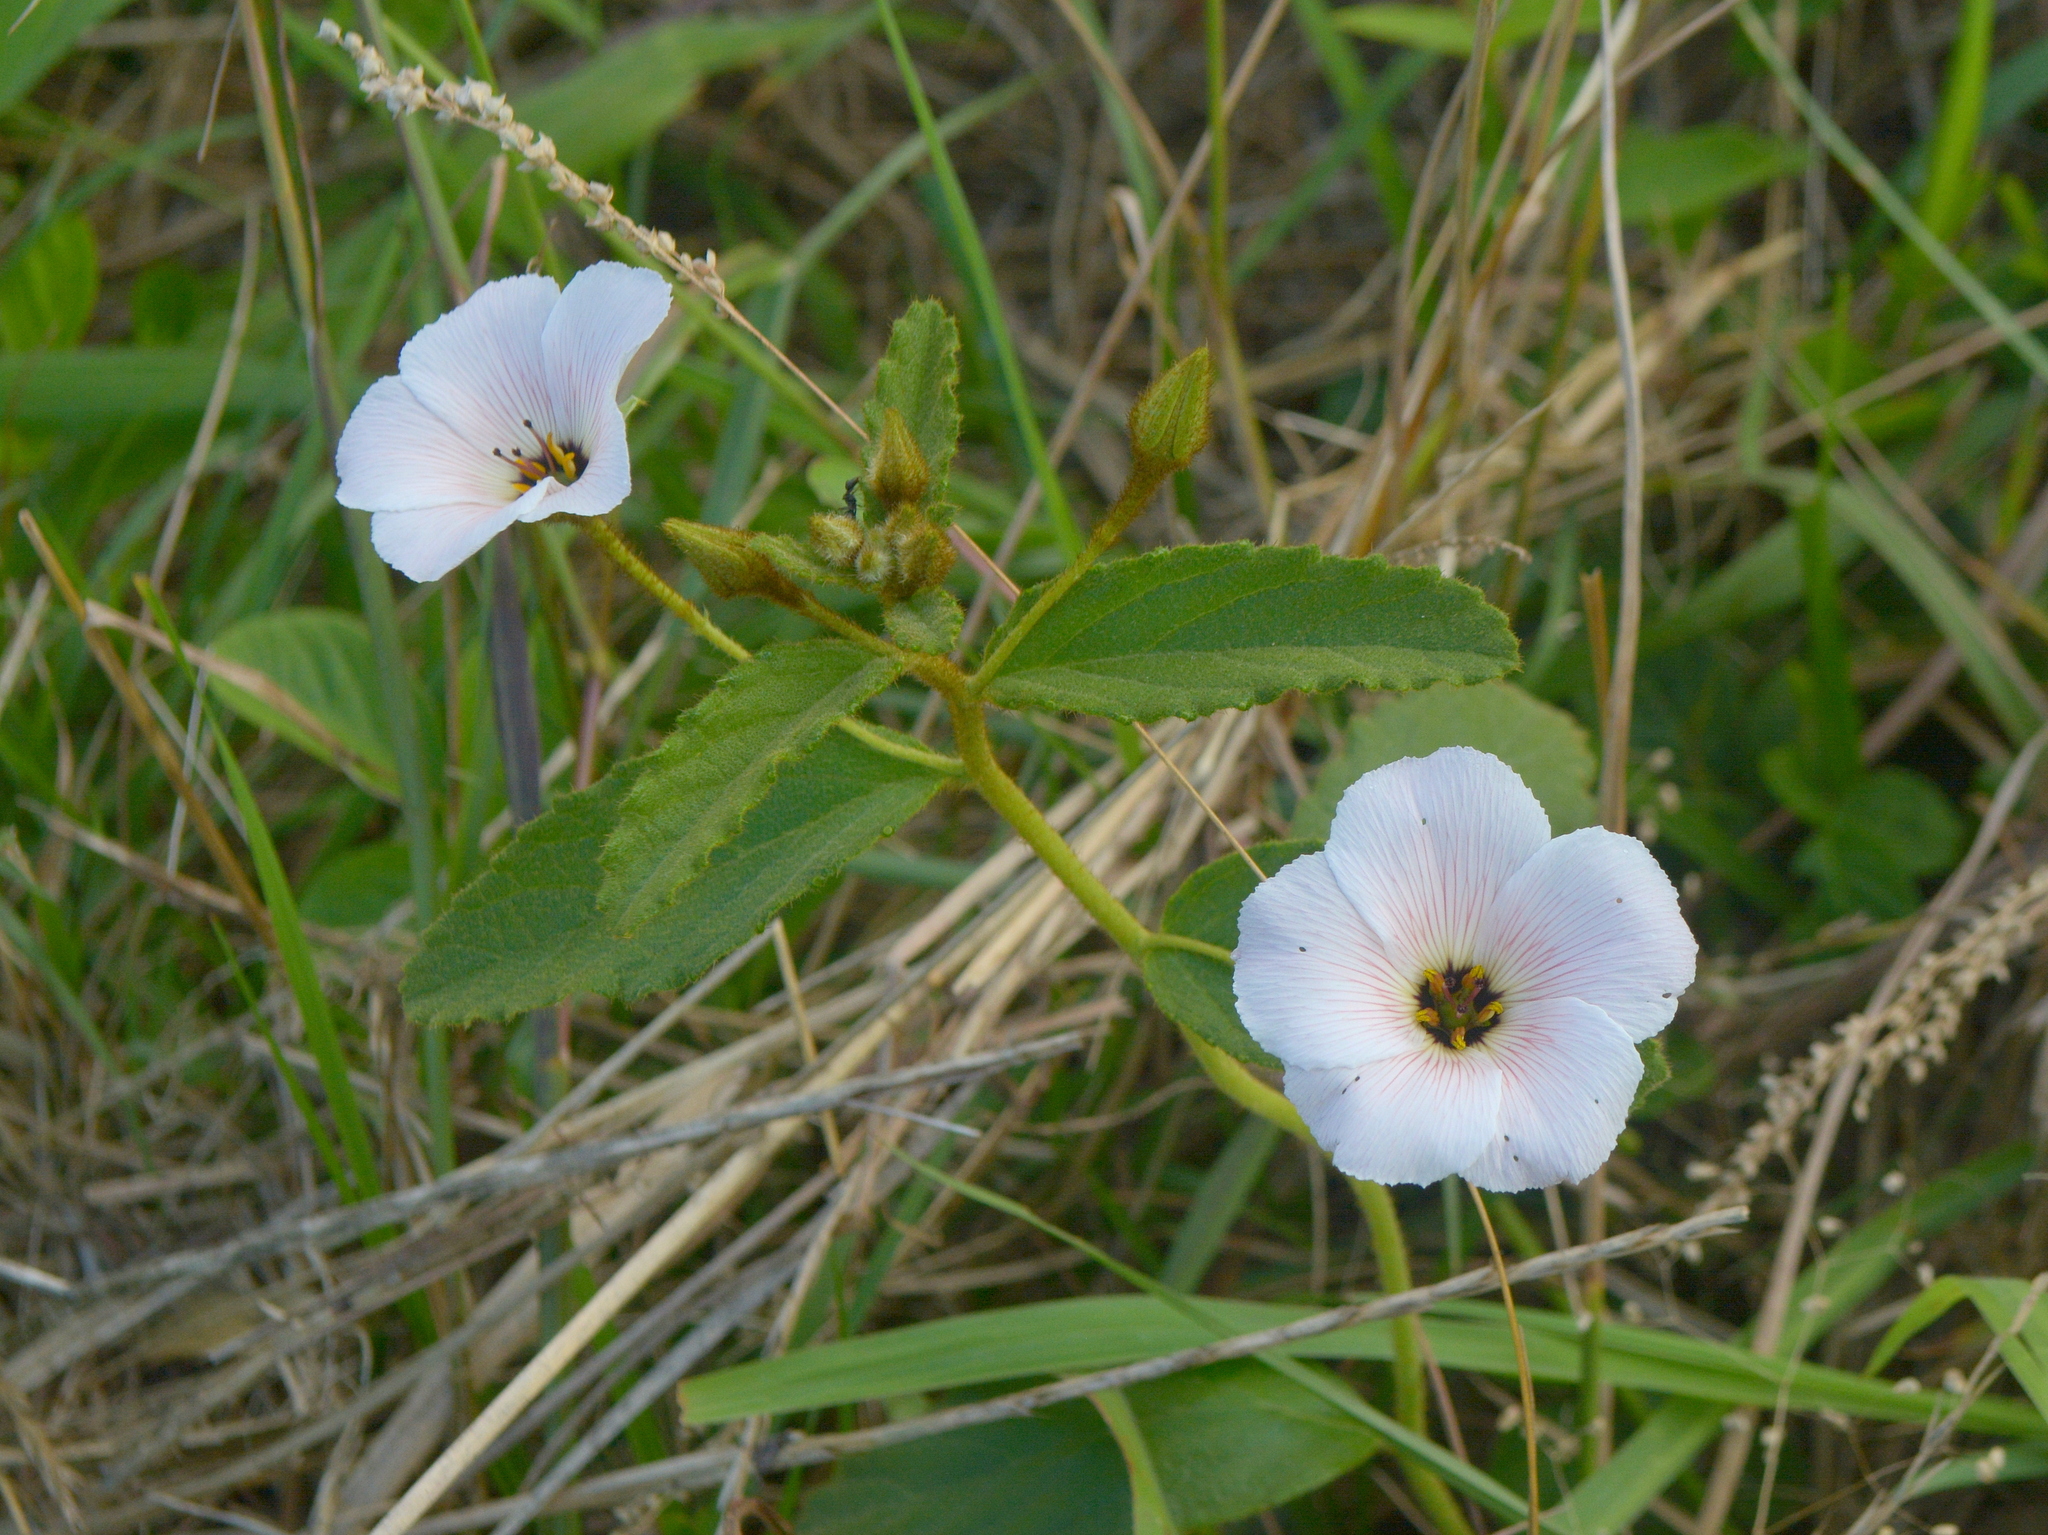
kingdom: Plantae
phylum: Tracheophyta
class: Magnoliopsida
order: Malpighiales
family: Turneraceae
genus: Piriqueta
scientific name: Piriqueta taubatensis
